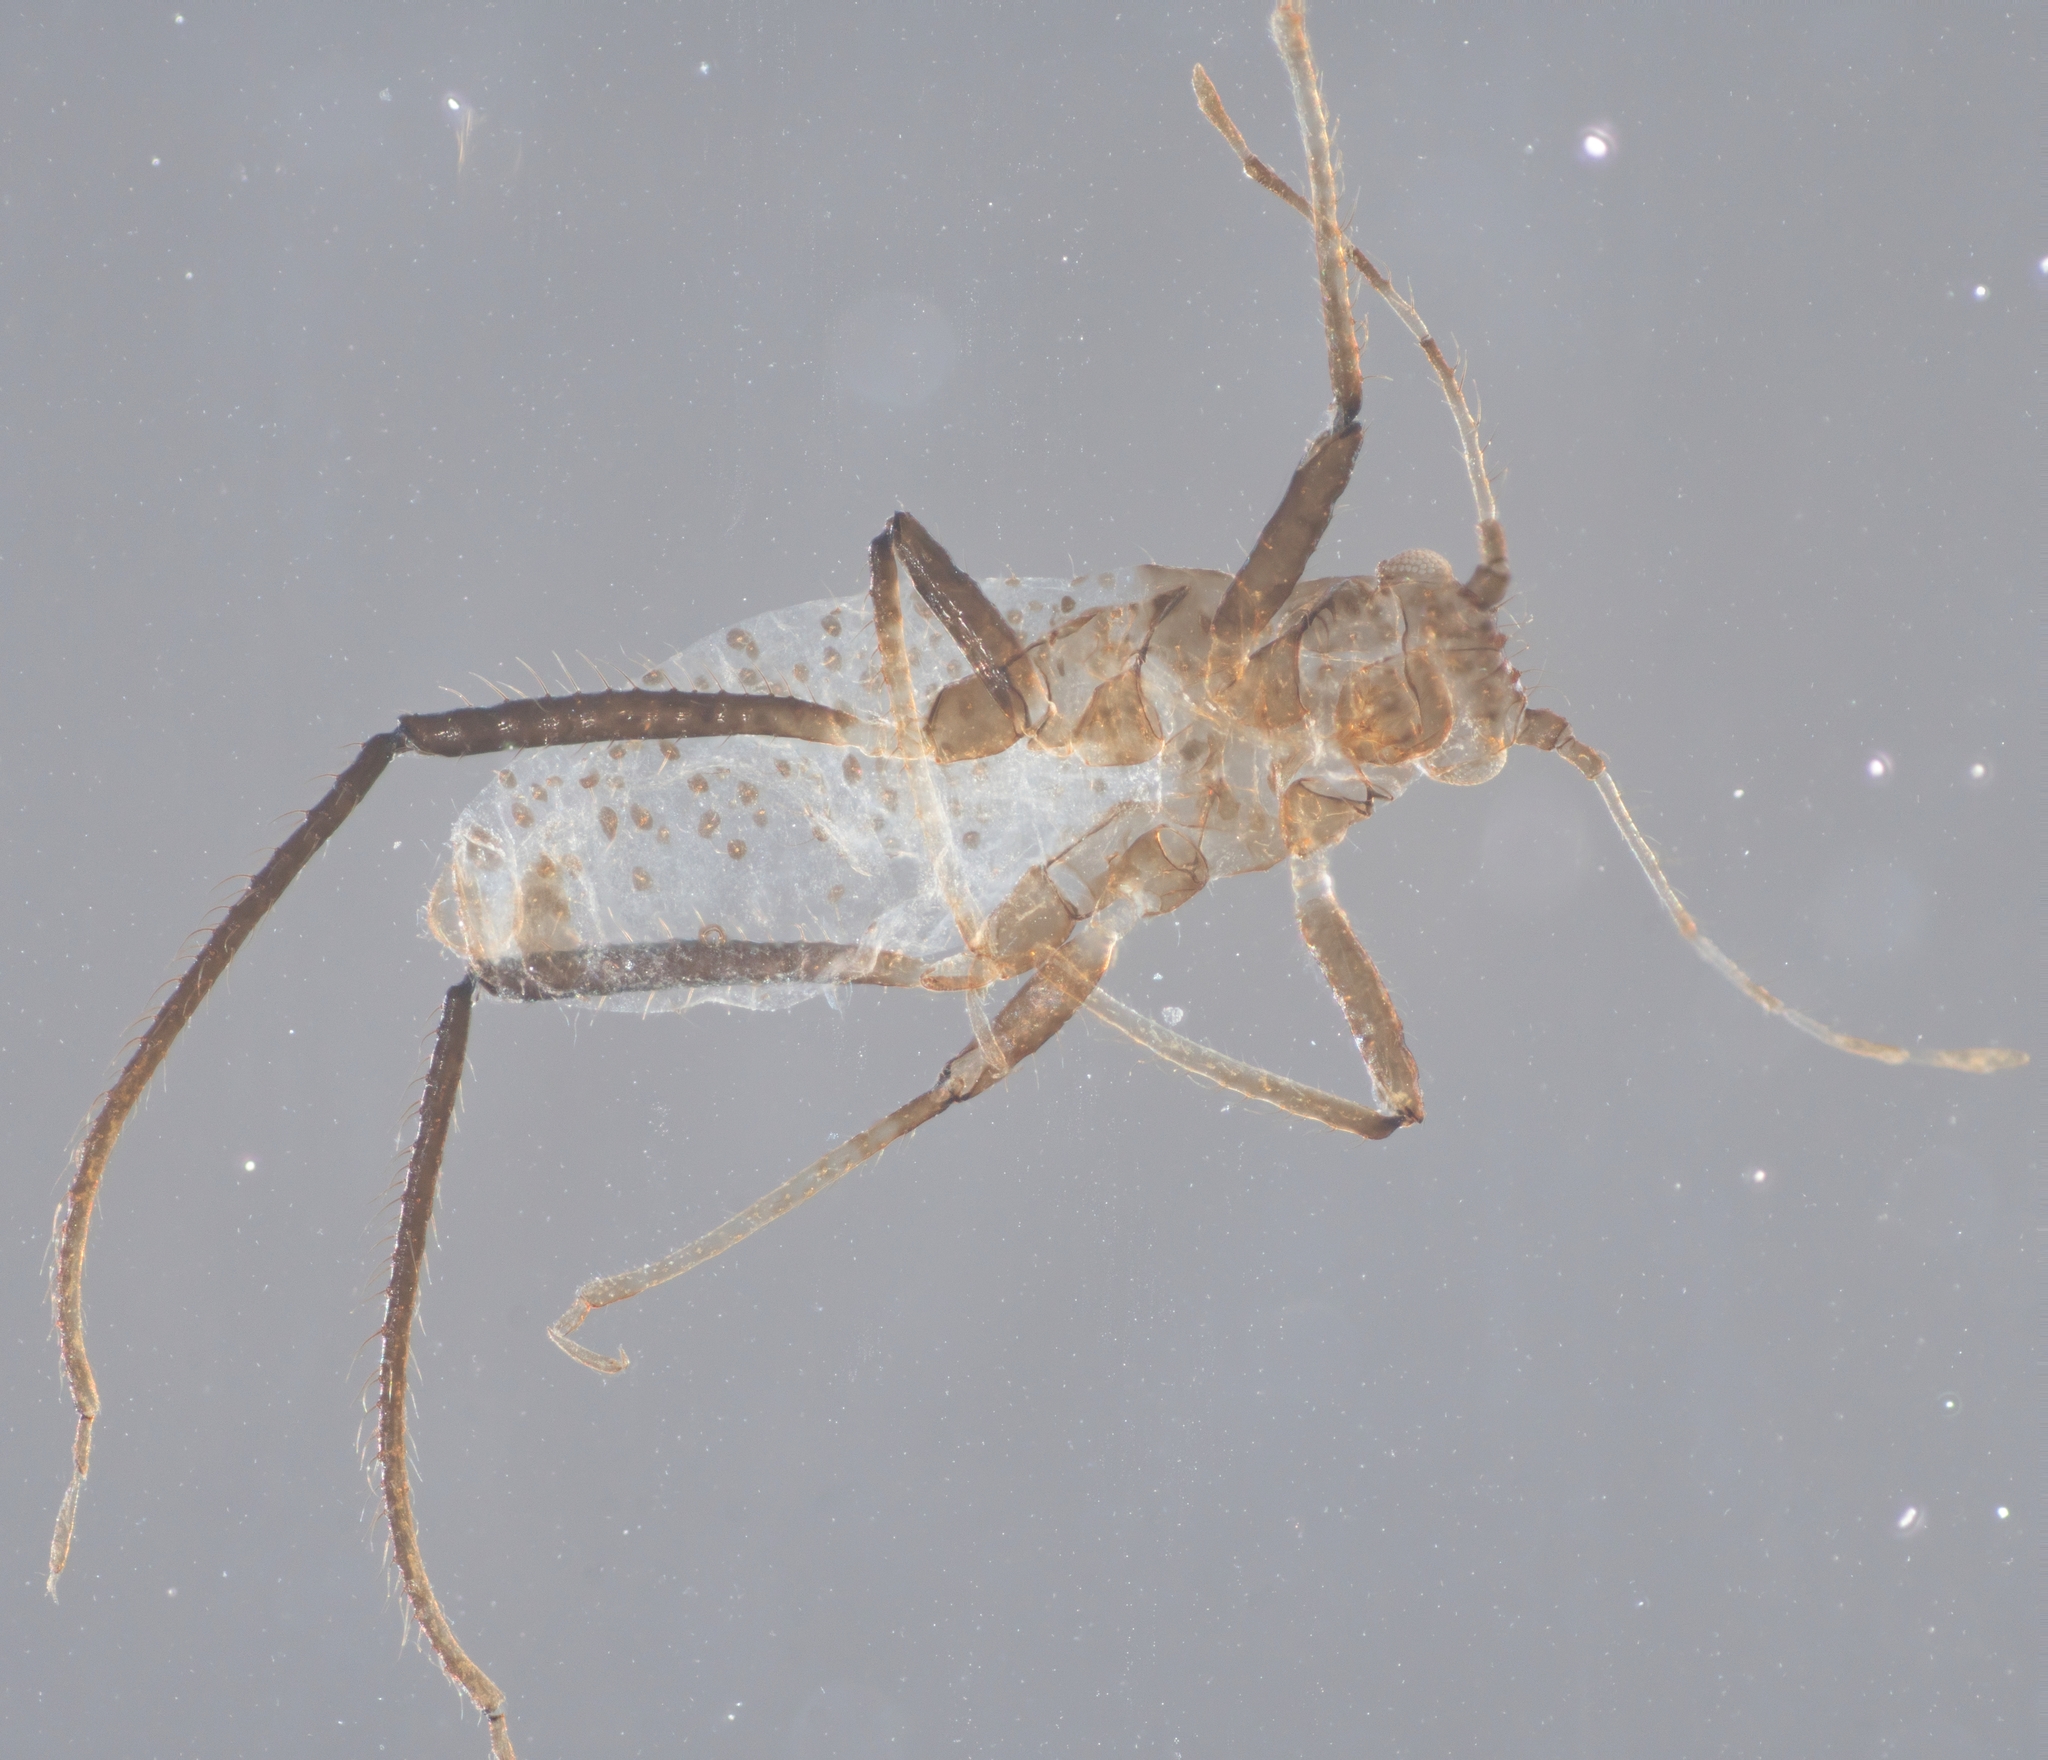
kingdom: Animalia
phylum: Arthropoda
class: Insecta
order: Hemiptera
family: Aphididae
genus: Eulachnus
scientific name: Eulachnus rileyi
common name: Active gray pine needle aphid
